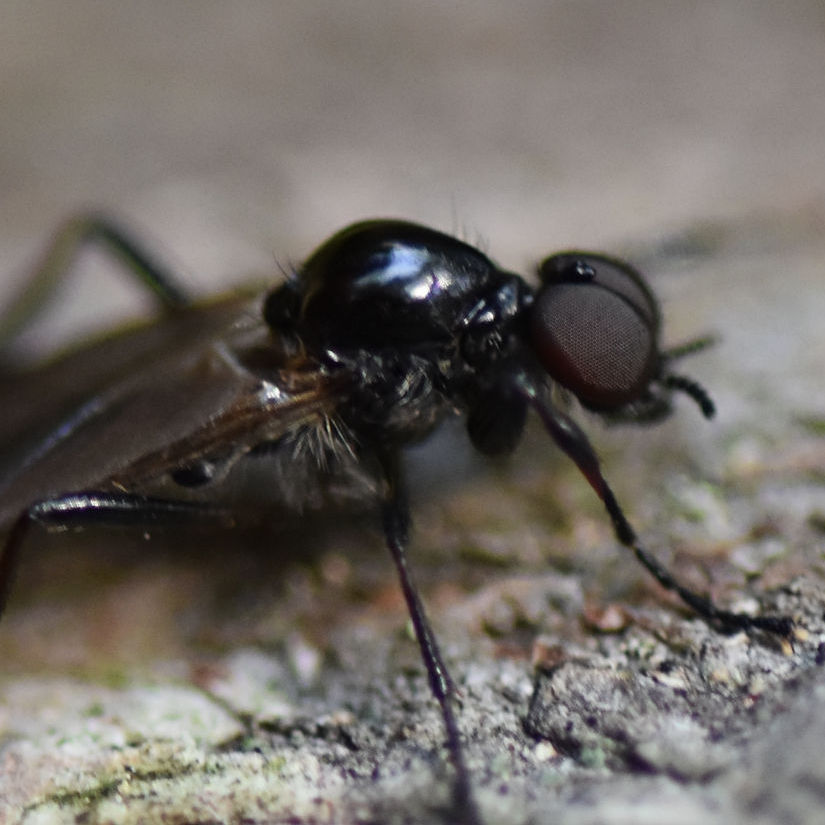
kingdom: Animalia
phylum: Arthropoda
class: Insecta
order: Diptera
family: Bibionidae
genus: Bibio
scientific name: Bibio longipes
